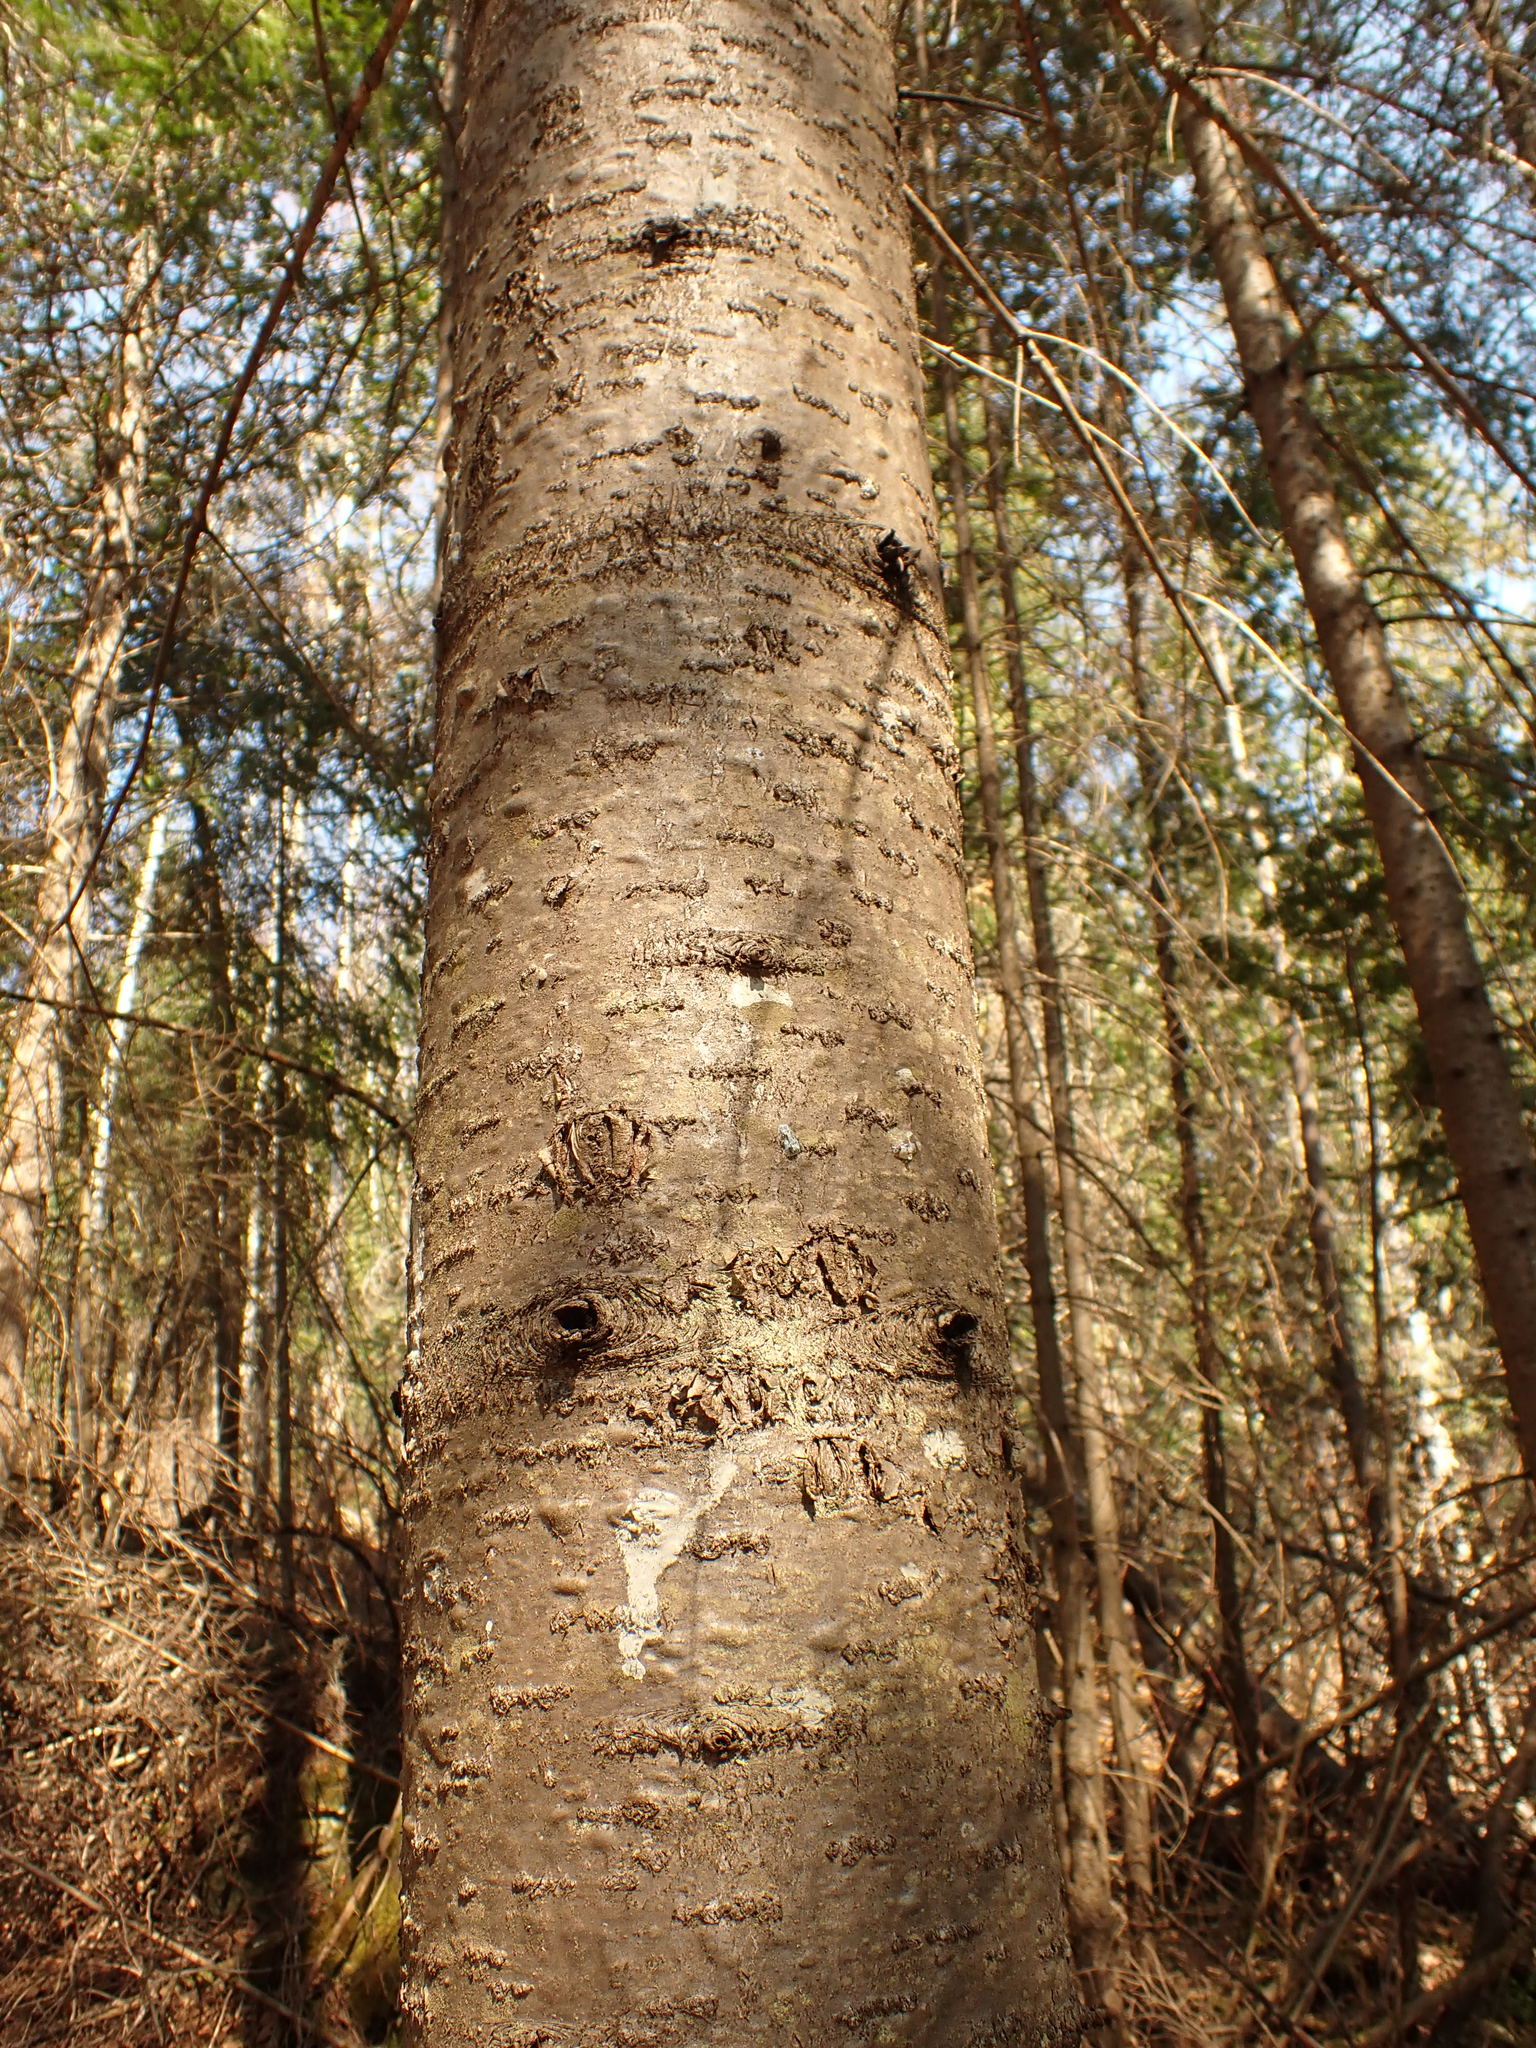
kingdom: Plantae
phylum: Tracheophyta
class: Pinopsida
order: Pinales
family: Pinaceae
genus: Abies
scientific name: Abies balsamea
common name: Balsam fir
